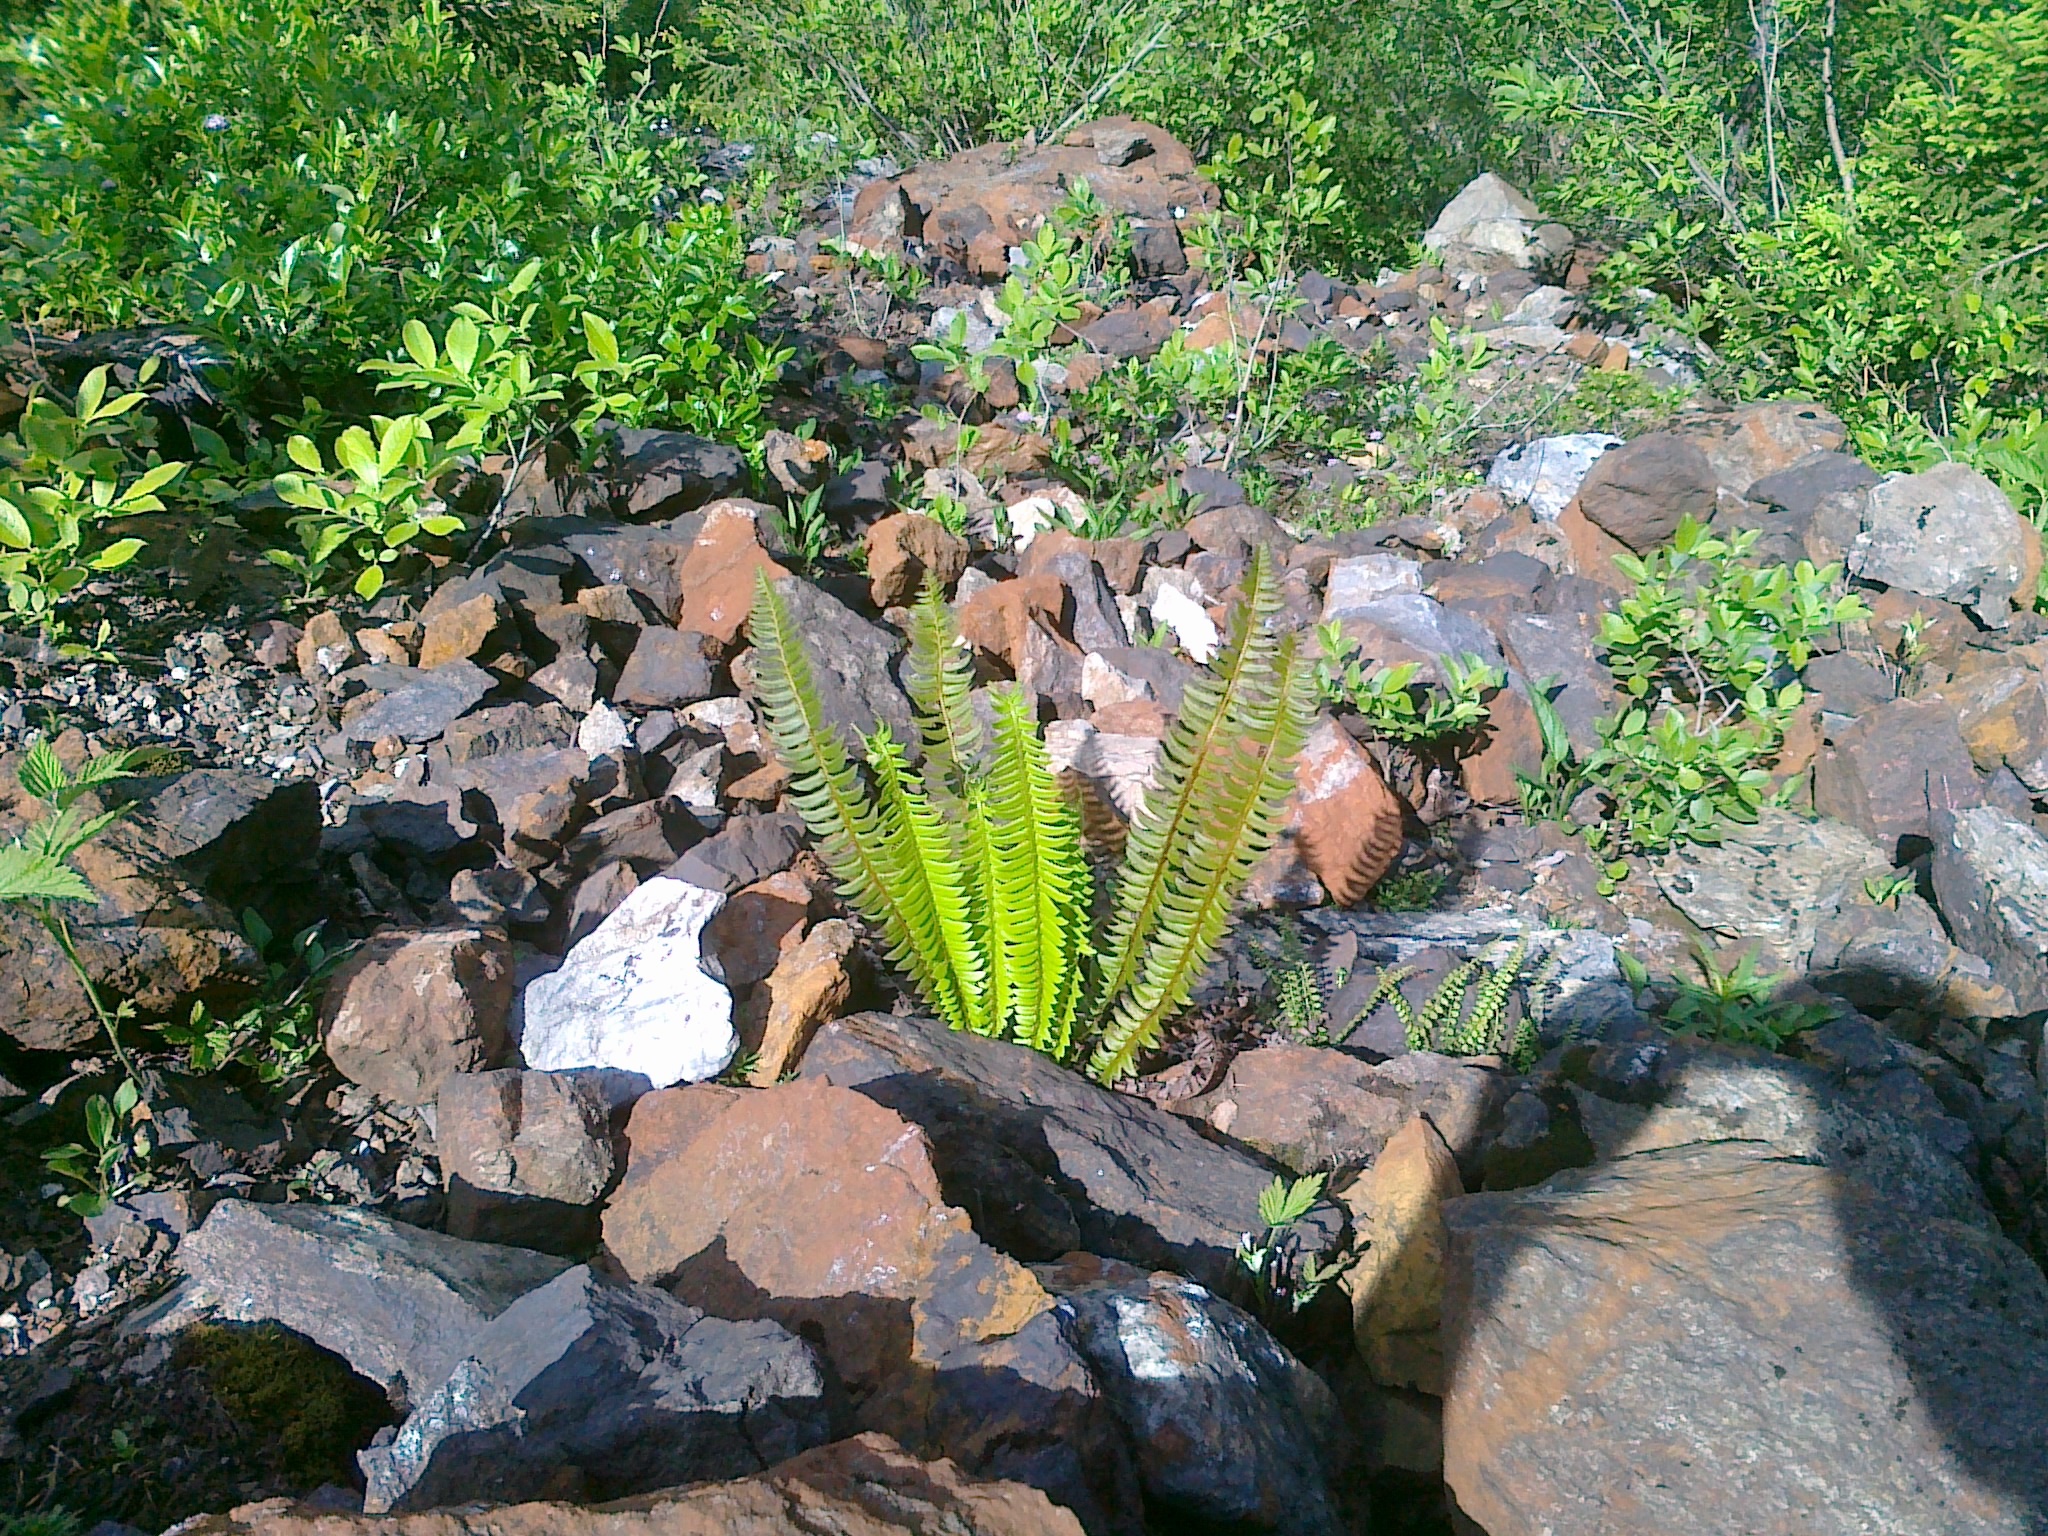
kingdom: Plantae
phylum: Tracheophyta
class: Polypodiopsida
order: Polypodiales
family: Dryopteridaceae
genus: Polystichum
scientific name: Polystichum lonchitis
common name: Holly fern
